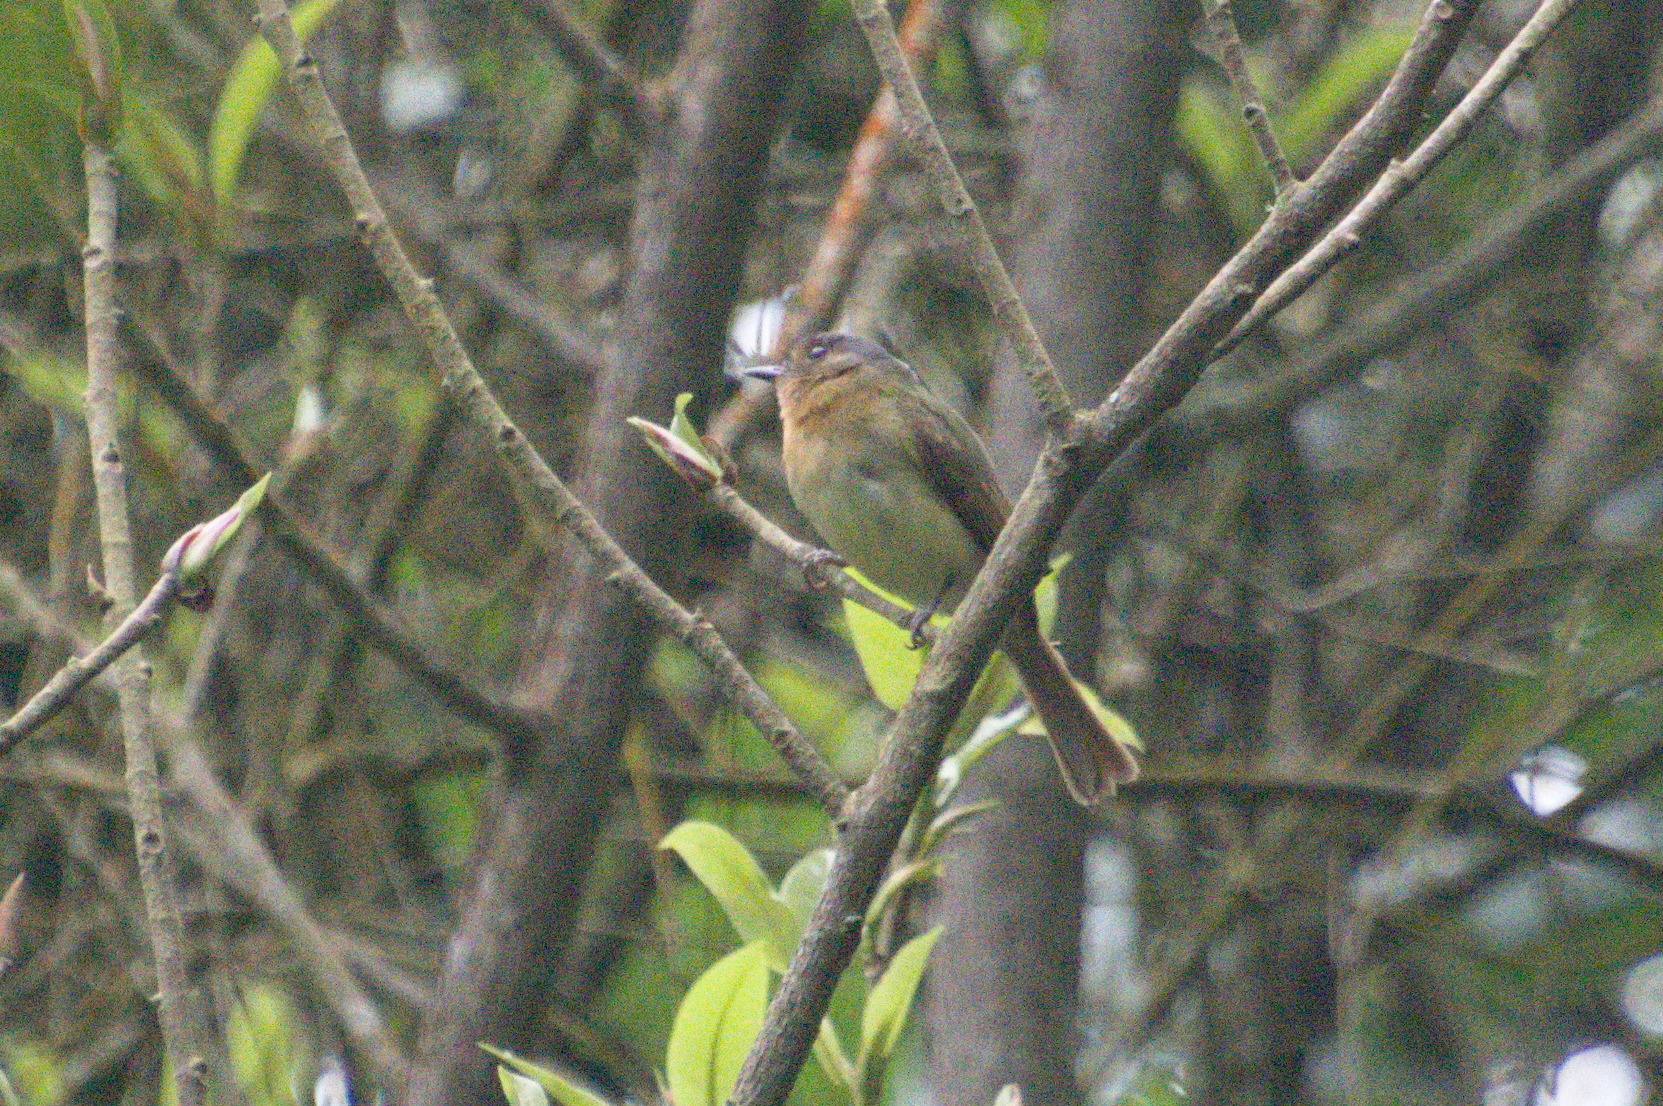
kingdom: Animalia
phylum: Chordata
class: Aves
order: Passeriformes
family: Tyrannidae
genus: Leptopogon
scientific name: Leptopogon rufipectus
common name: Rufous-breasted flycatcher
